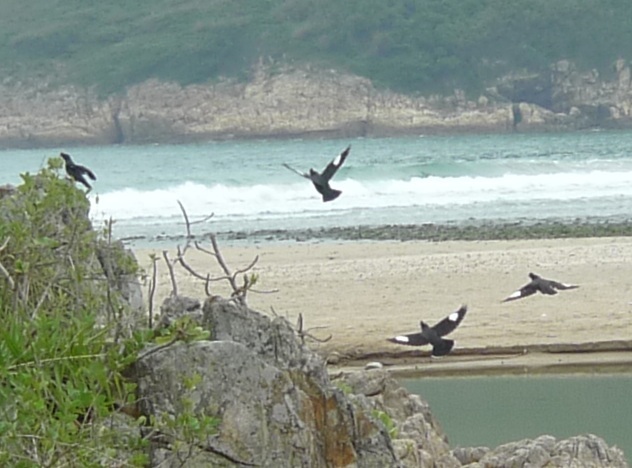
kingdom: Animalia
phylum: Chordata
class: Aves
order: Passeriformes
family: Sturnidae
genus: Acridotheres
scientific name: Acridotheres cristatellus
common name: Crested myna
